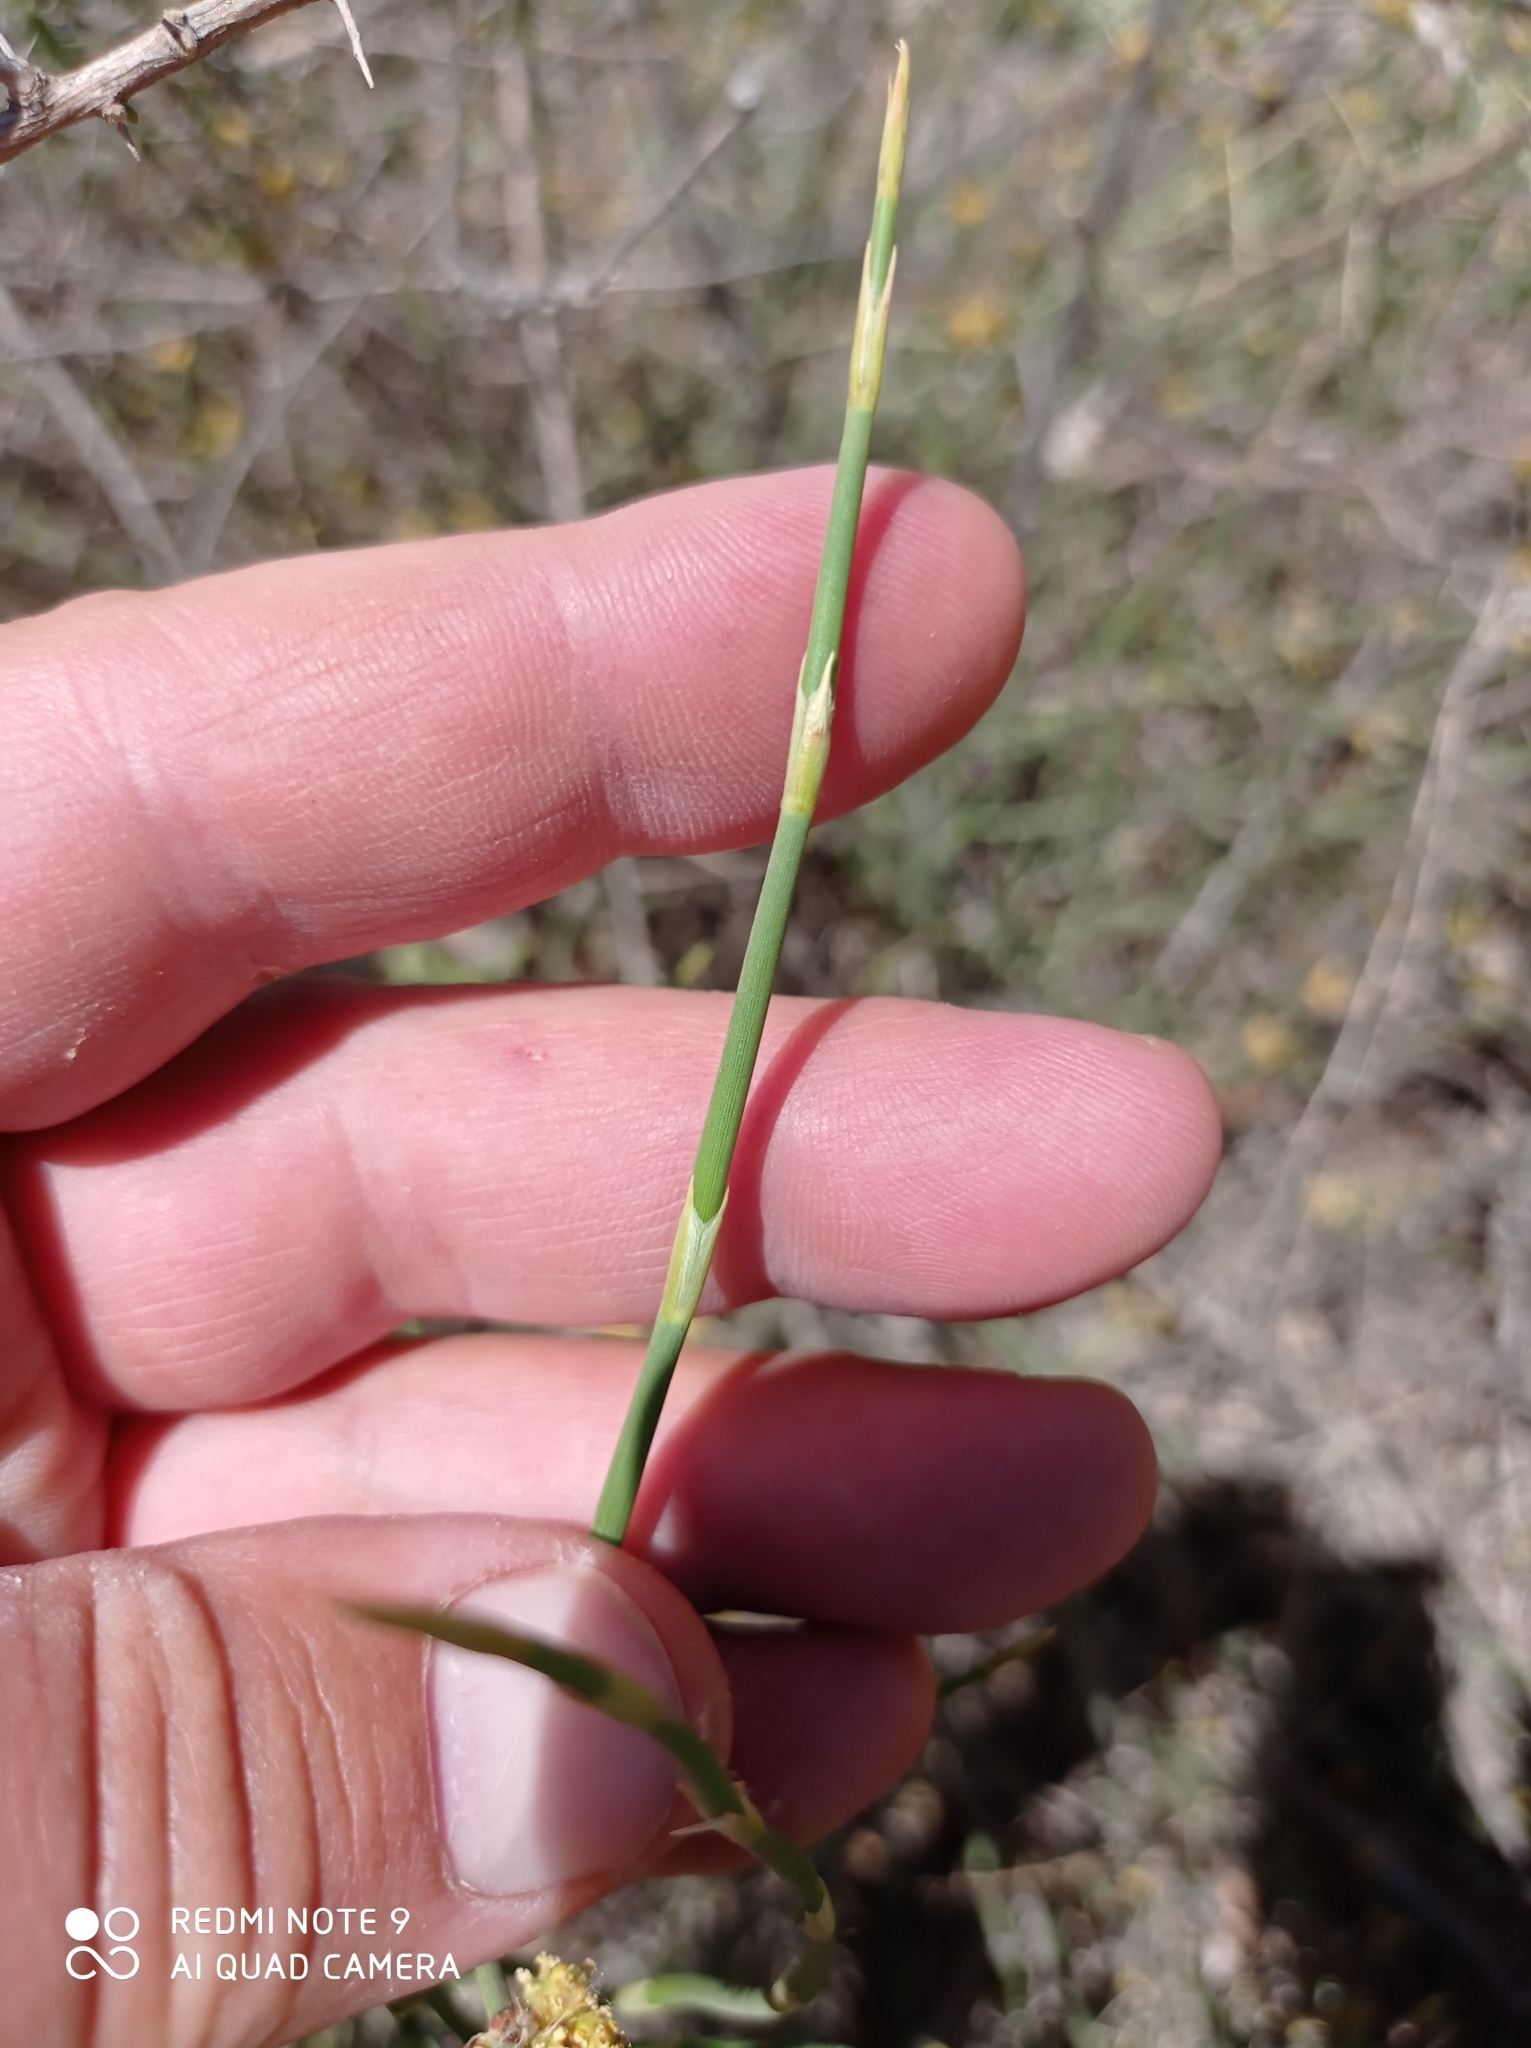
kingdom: Plantae
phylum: Tracheophyta
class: Gnetopsida
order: Ephedrales
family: Ephedraceae
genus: Ephedra
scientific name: Ephedra ochreata
